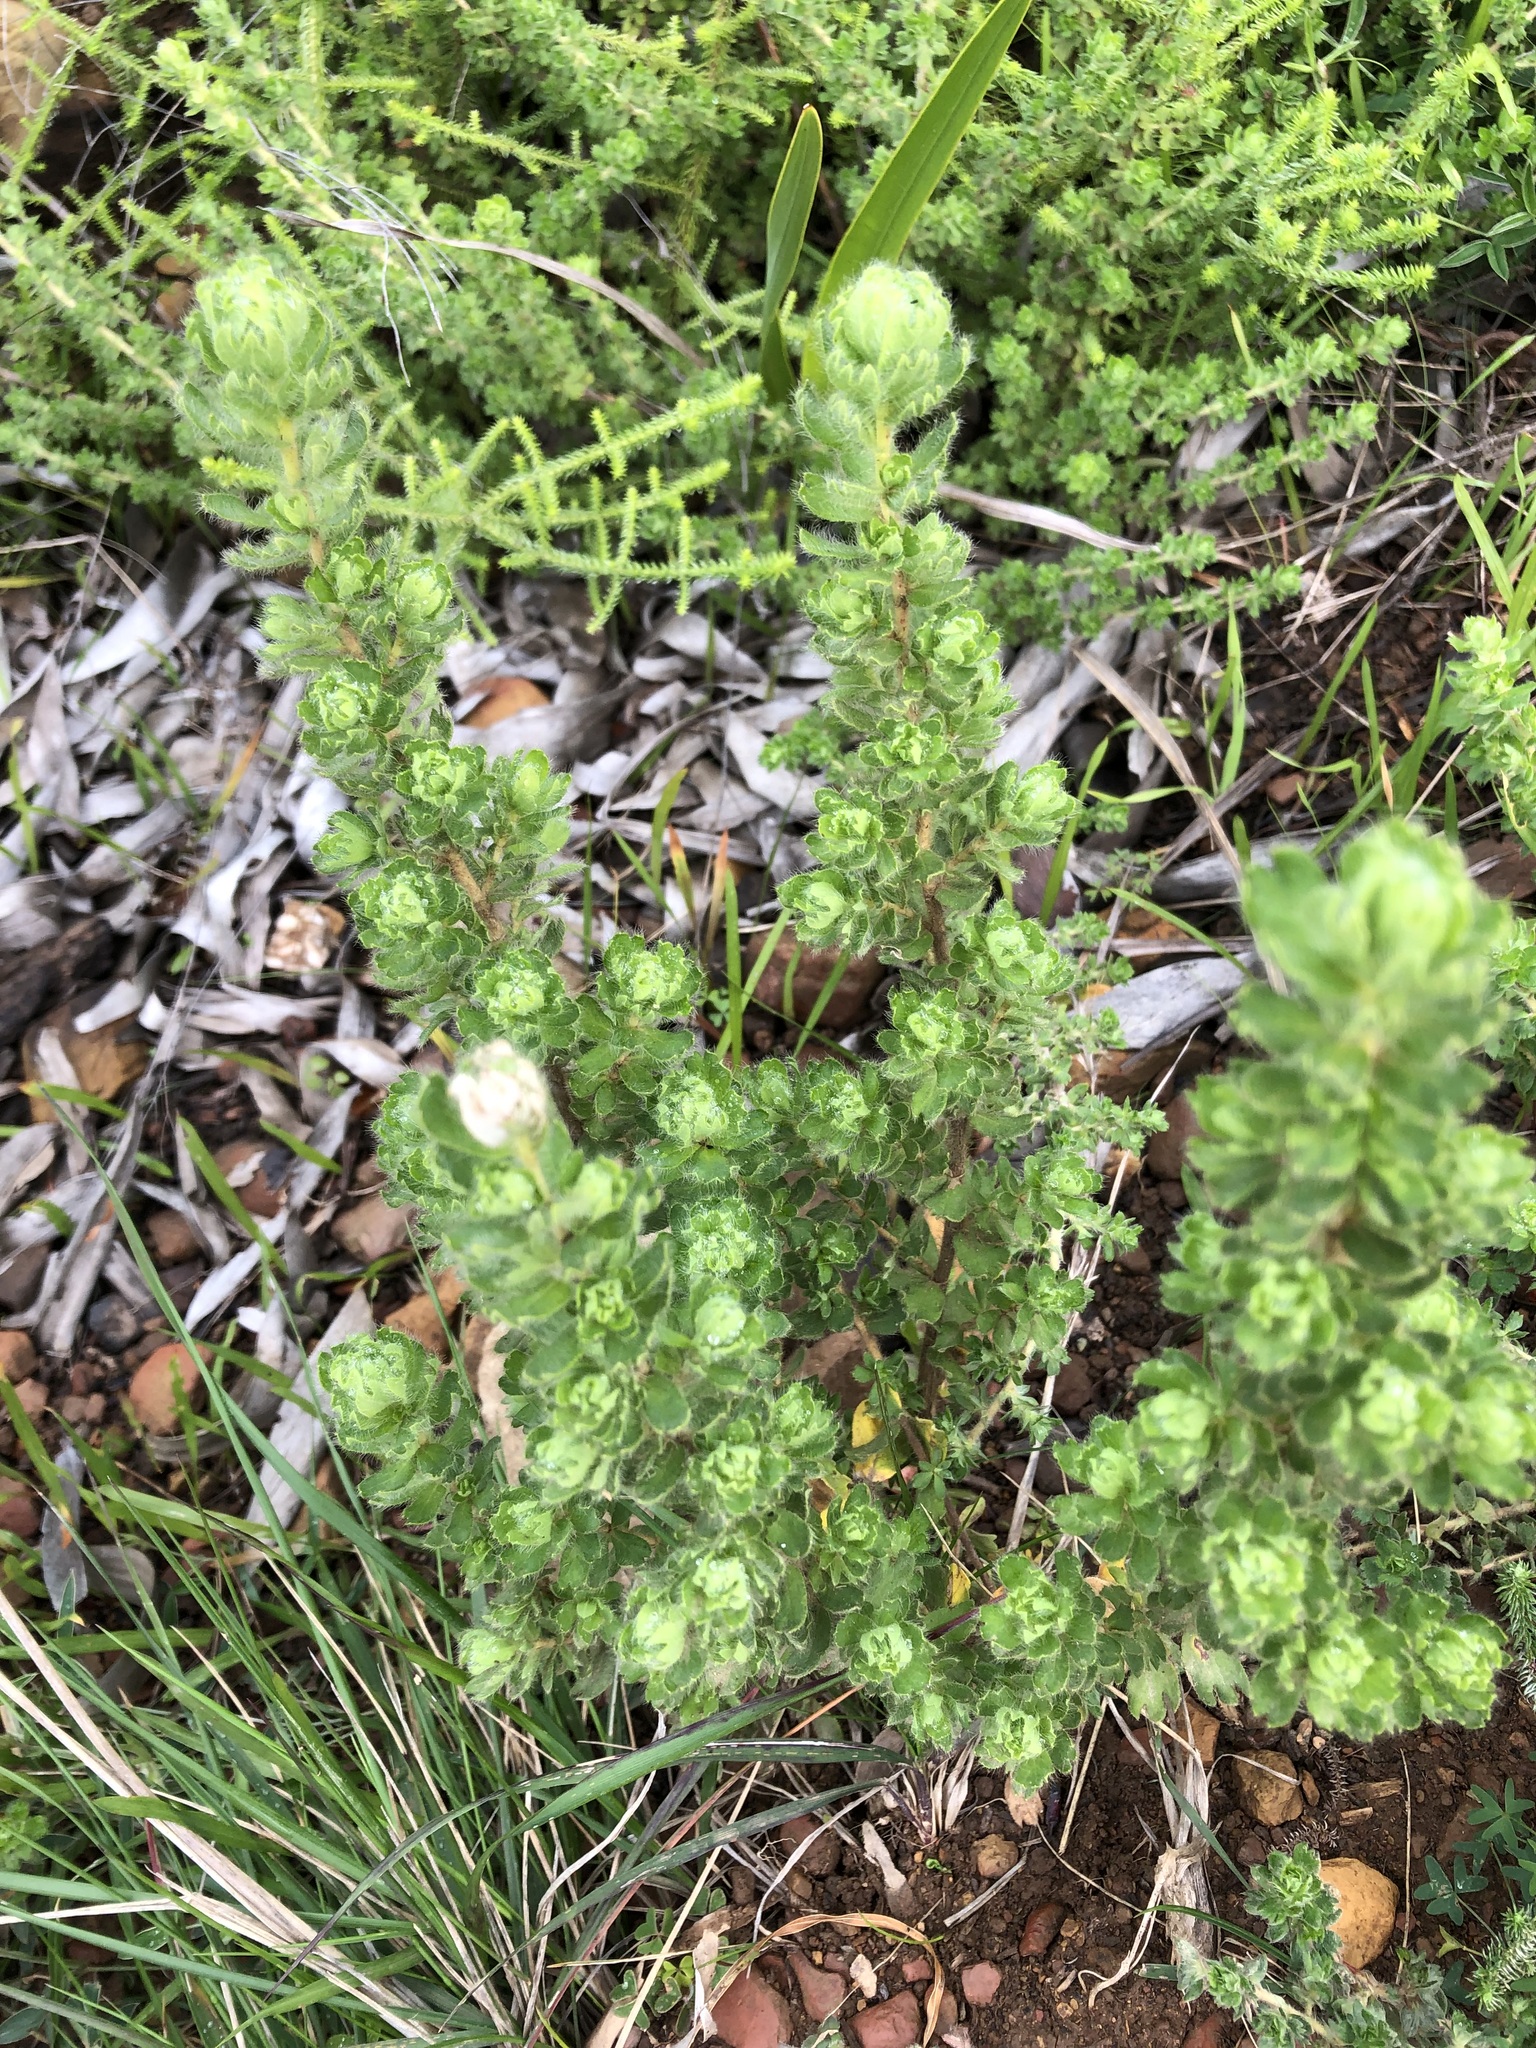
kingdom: Plantae
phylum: Tracheophyta
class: Magnoliopsida
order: Rosales
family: Rosaceae
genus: Cliffortia
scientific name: Cliffortia polygonifolia
